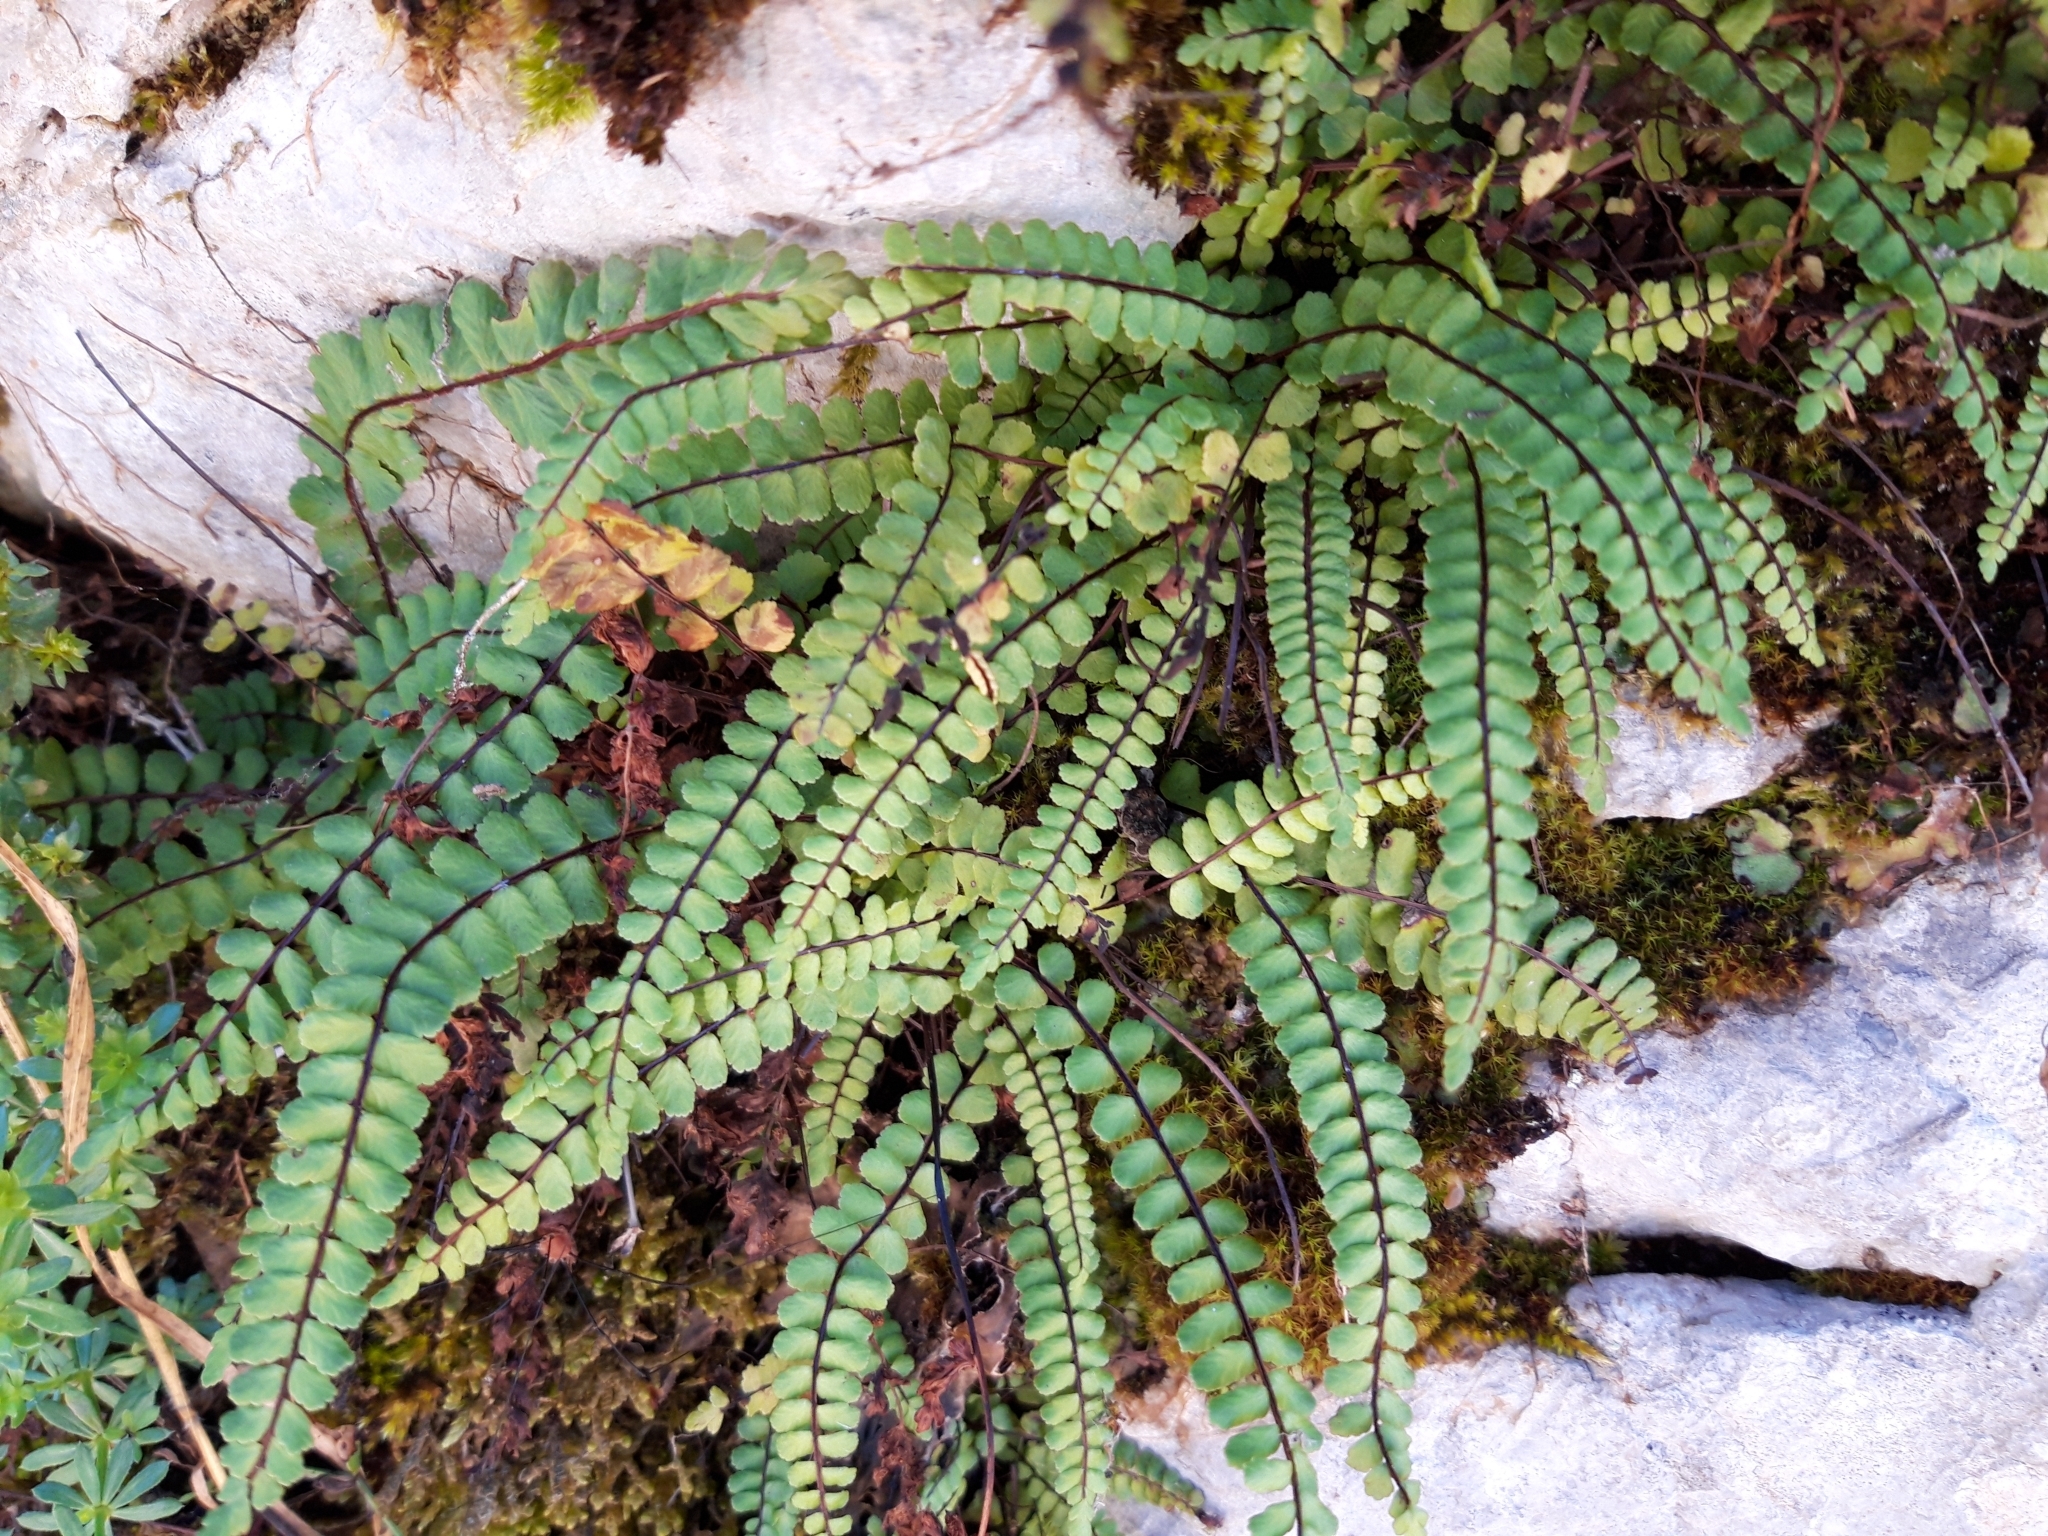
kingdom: Plantae
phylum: Tracheophyta
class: Polypodiopsida
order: Polypodiales
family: Aspleniaceae
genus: Asplenium
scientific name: Asplenium trichomanes
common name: Maidenhair spleenwort
